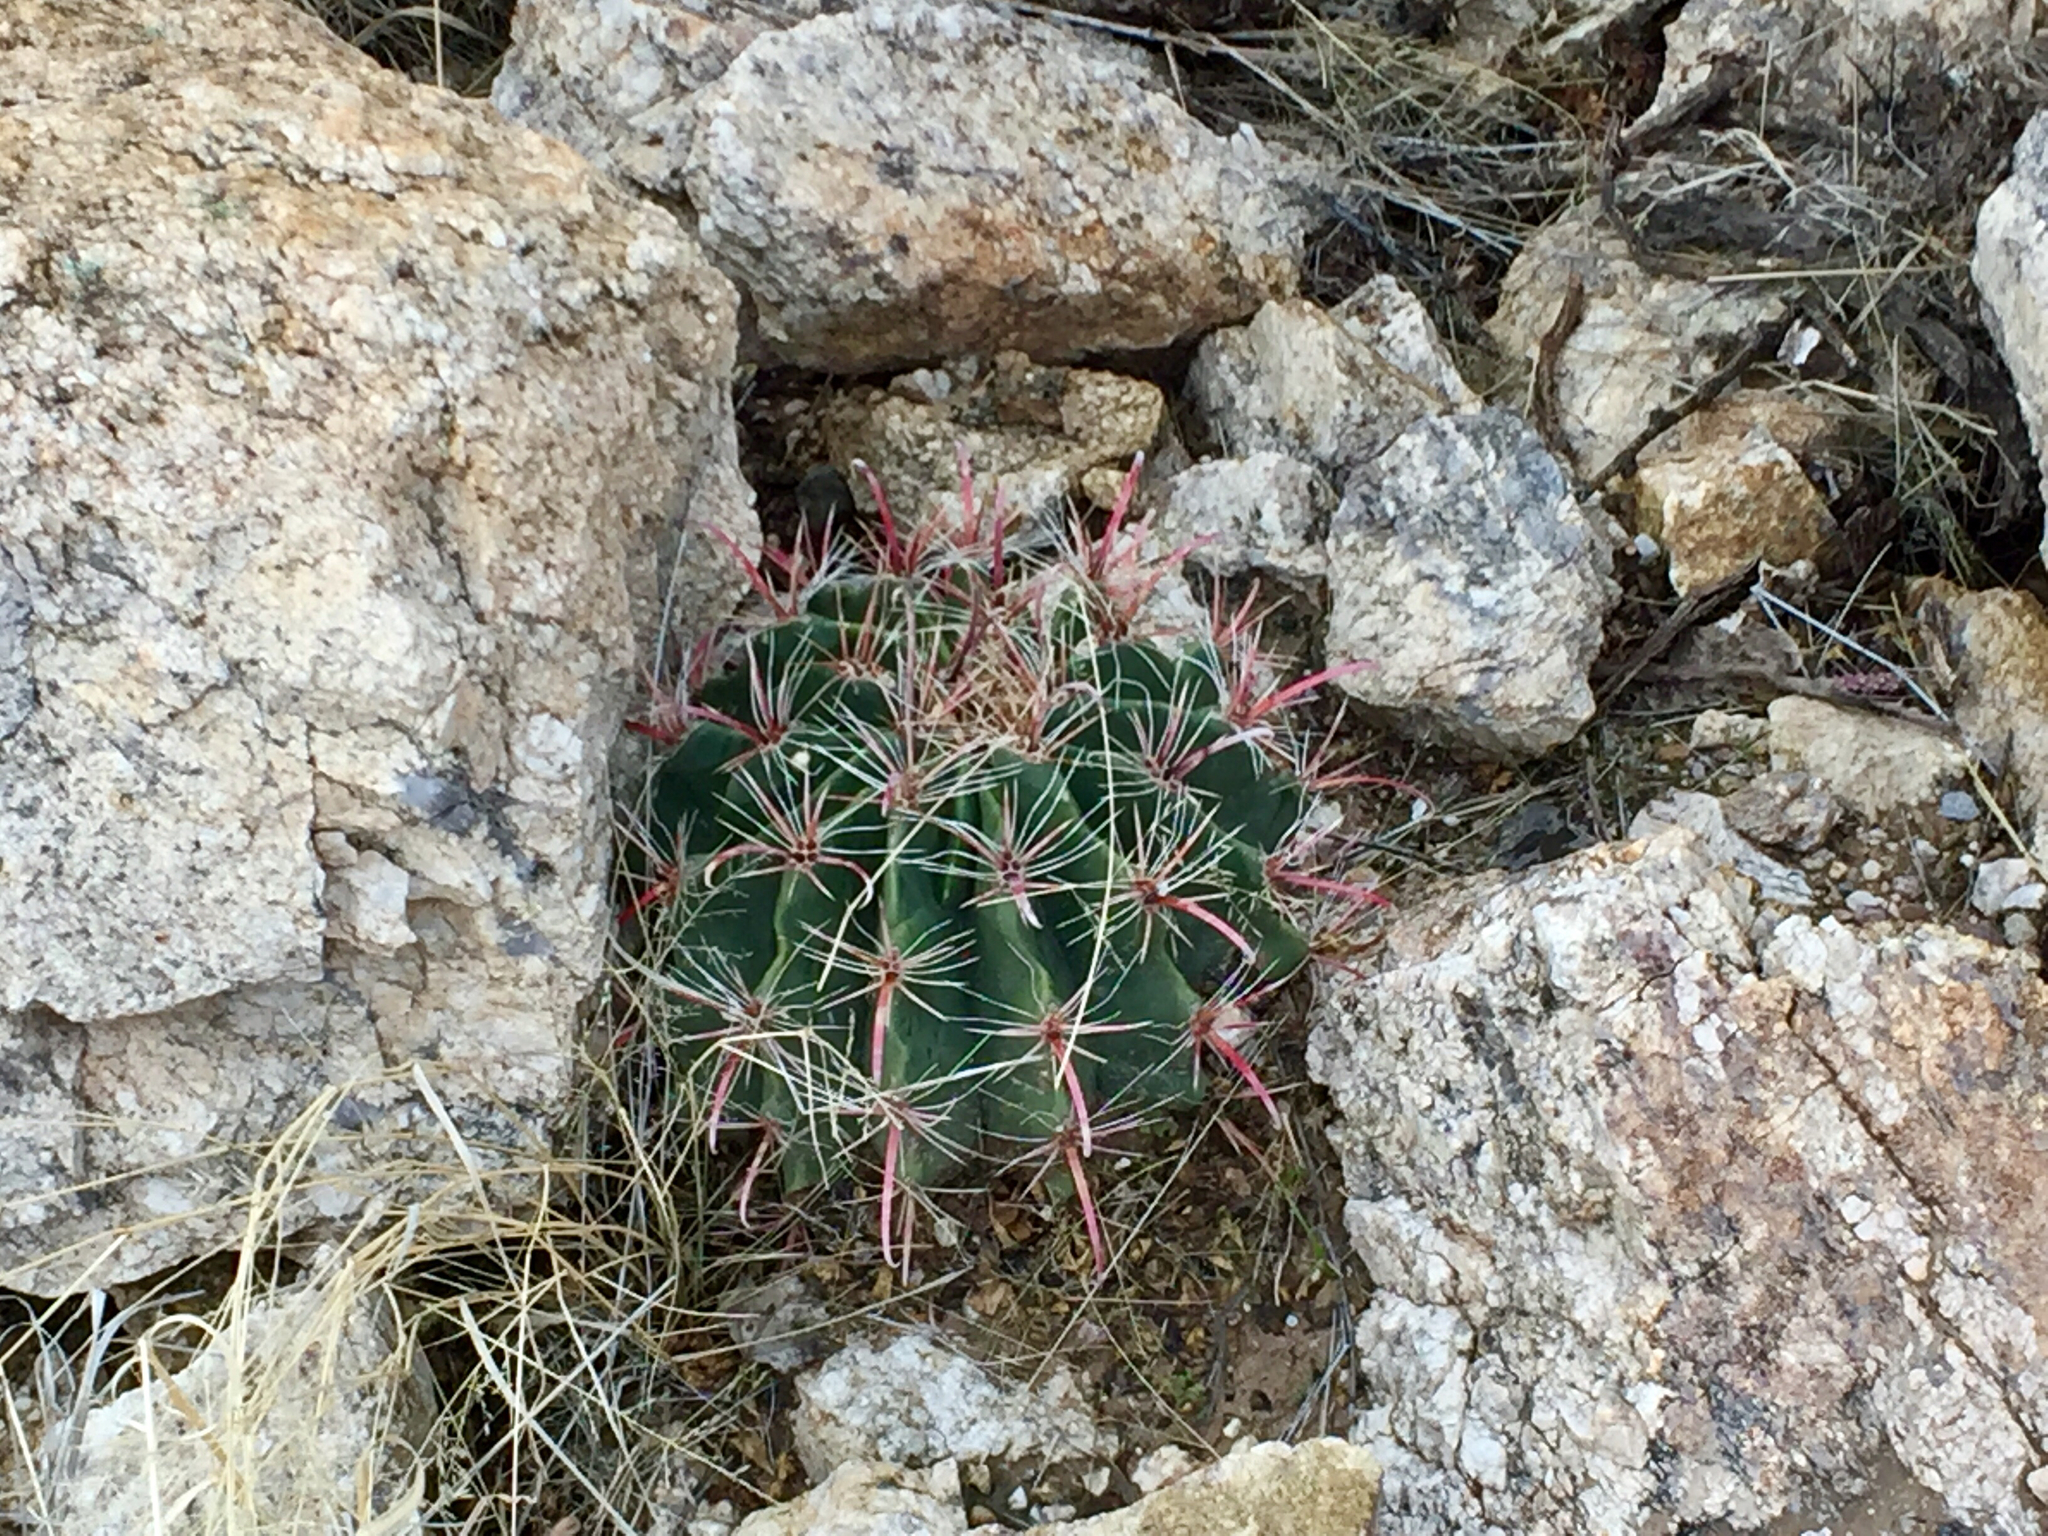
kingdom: Plantae
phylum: Tracheophyta
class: Magnoliopsida
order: Caryophyllales
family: Cactaceae
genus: Ferocactus
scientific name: Ferocactus wislizeni
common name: Candy barrel cactus
